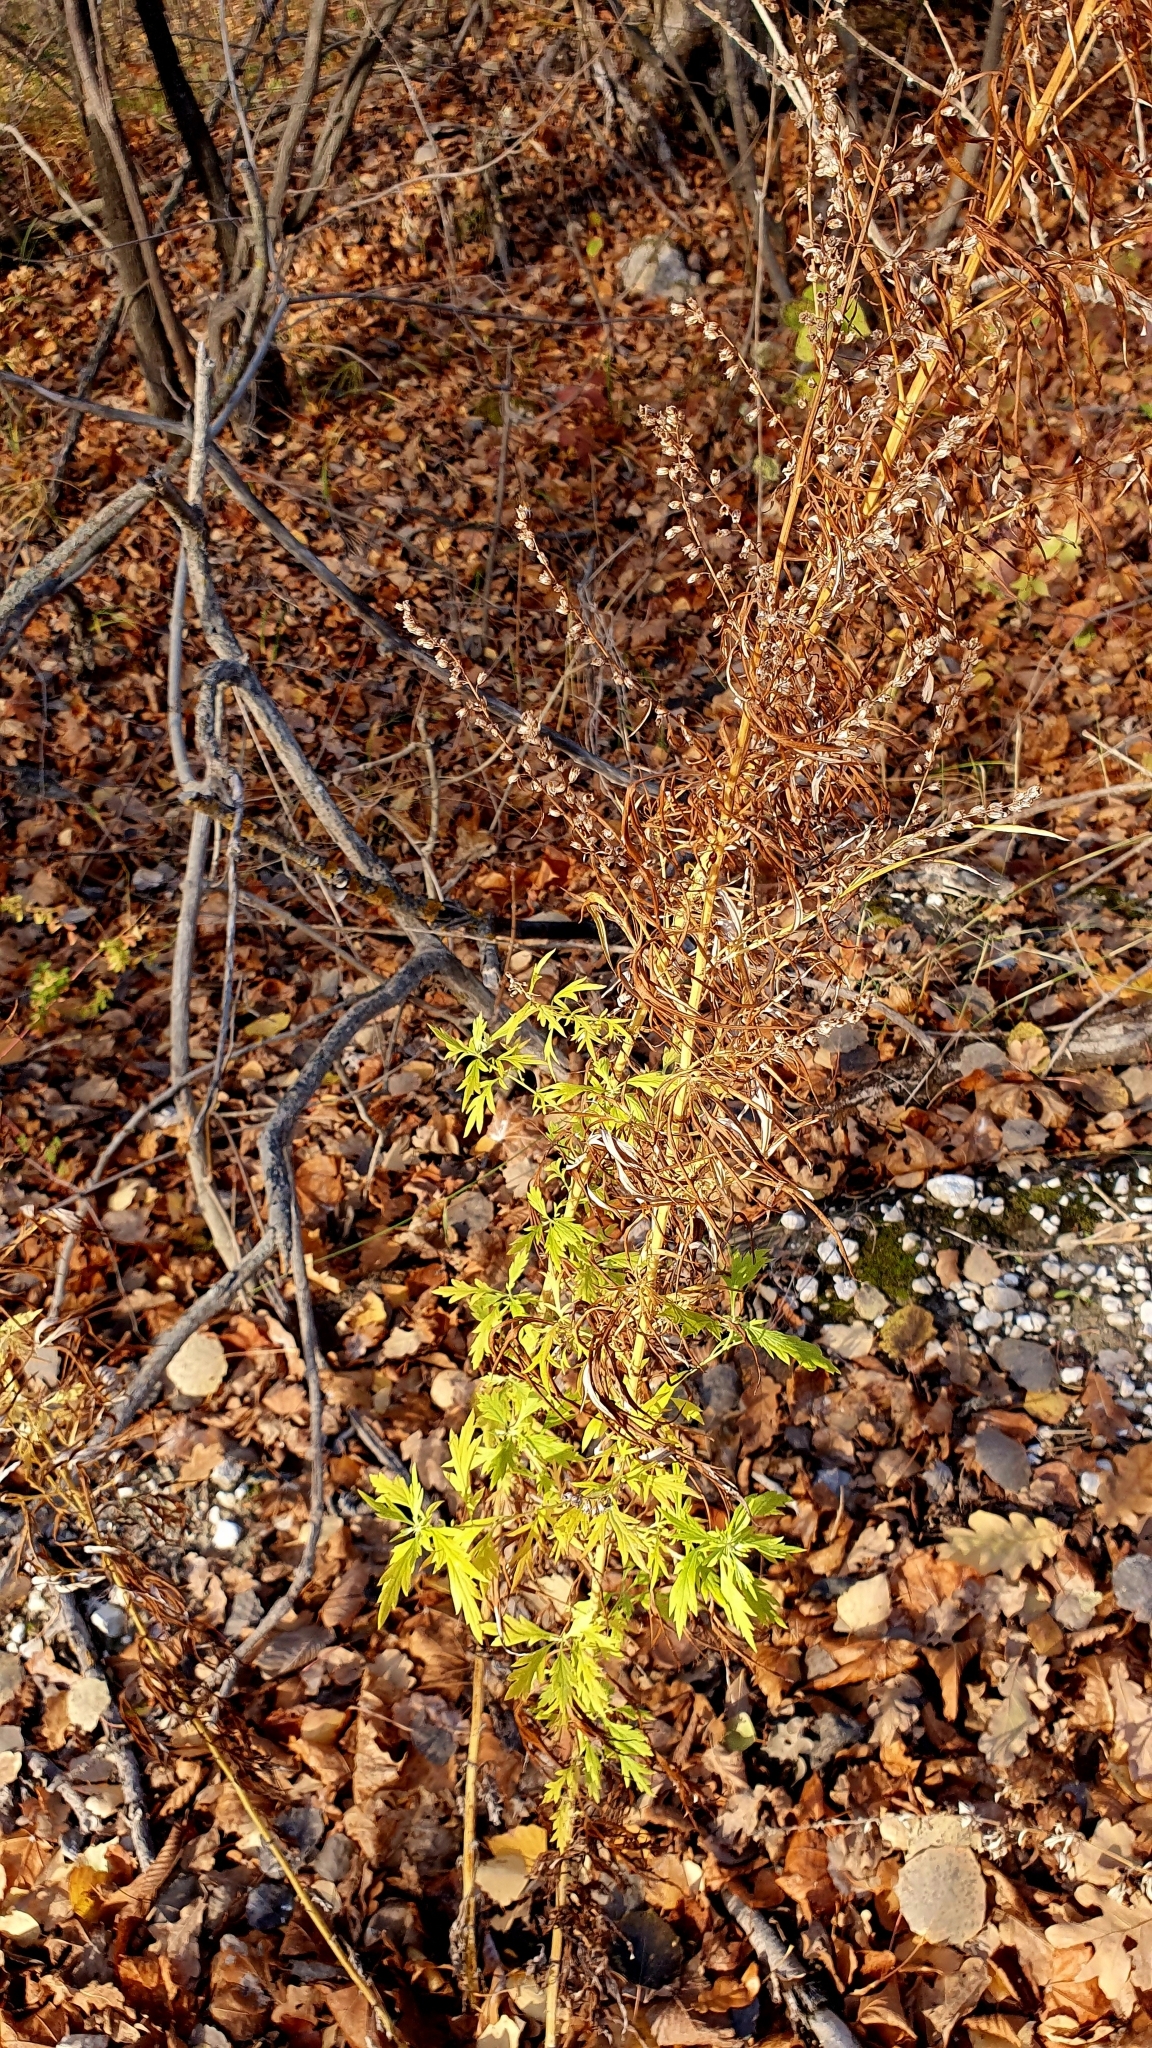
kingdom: Plantae
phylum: Tracheophyta
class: Magnoliopsida
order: Asterales
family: Asteraceae
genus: Artemisia
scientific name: Artemisia vulgaris
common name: Mugwort
